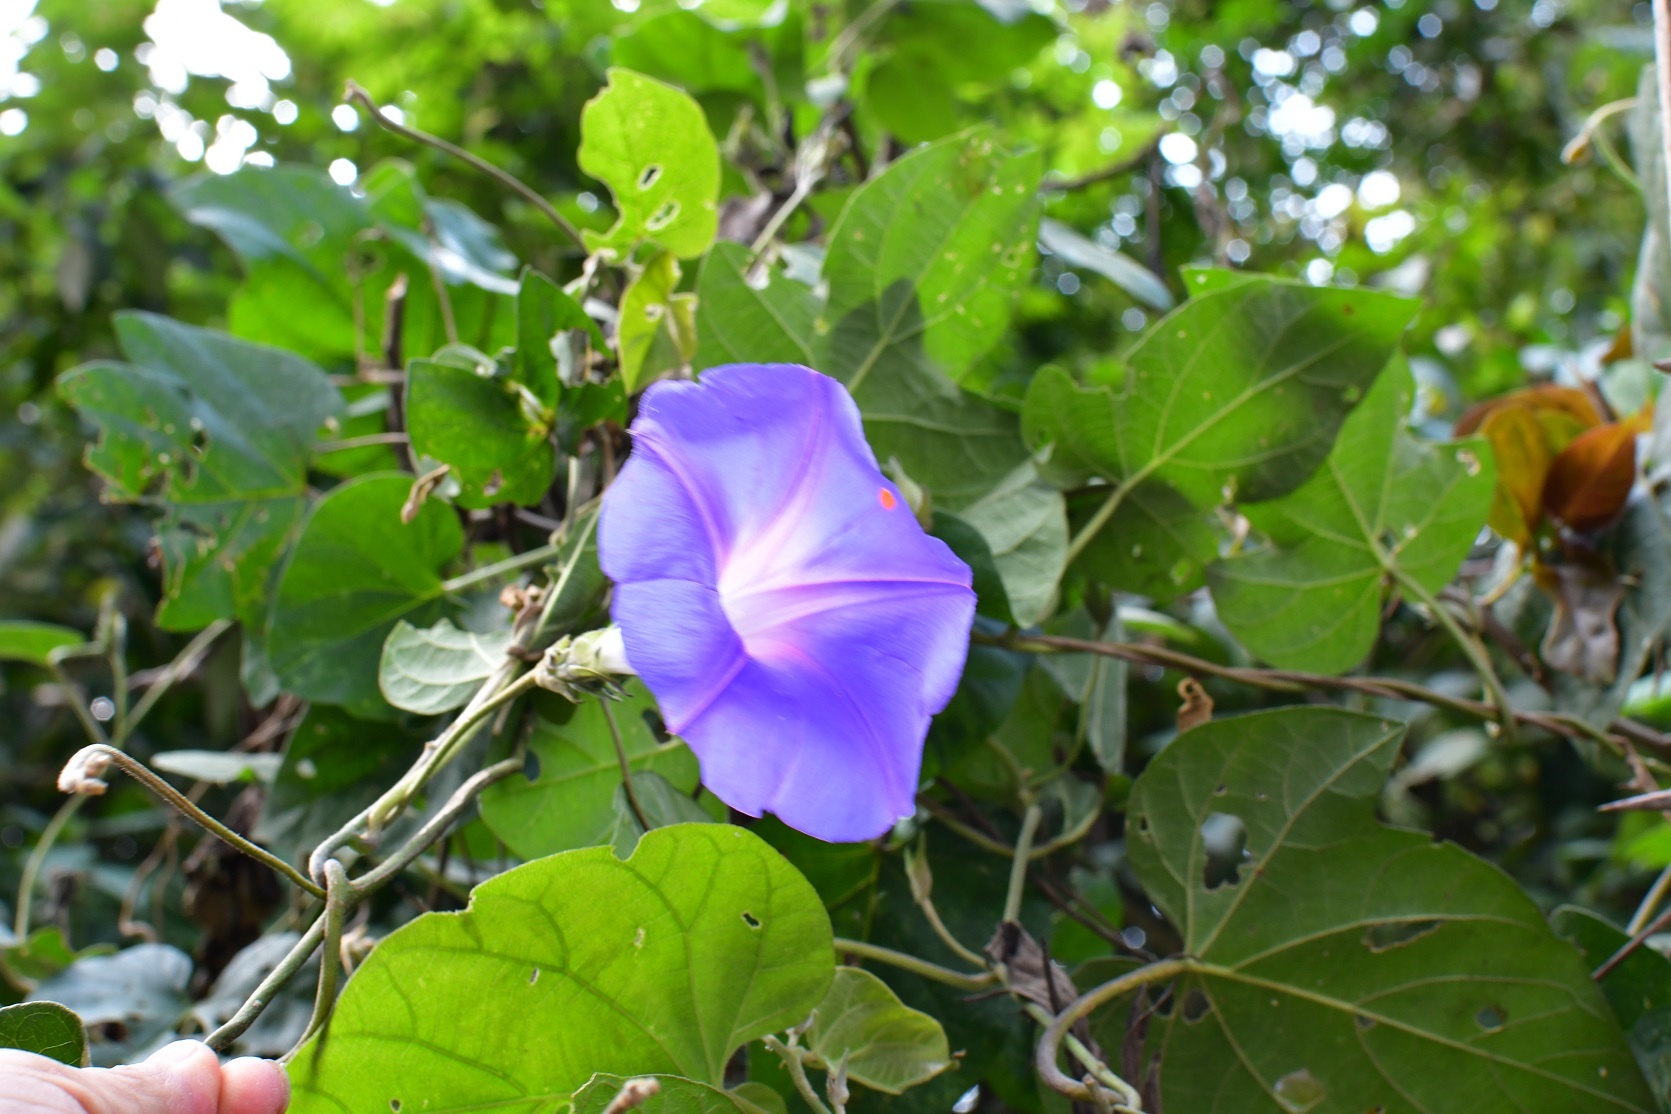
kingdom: Plantae
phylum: Tracheophyta
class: Magnoliopsida
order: Solanales
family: Convolvulaceae
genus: Ipomoea
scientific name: Ipomoea mitchelliae
